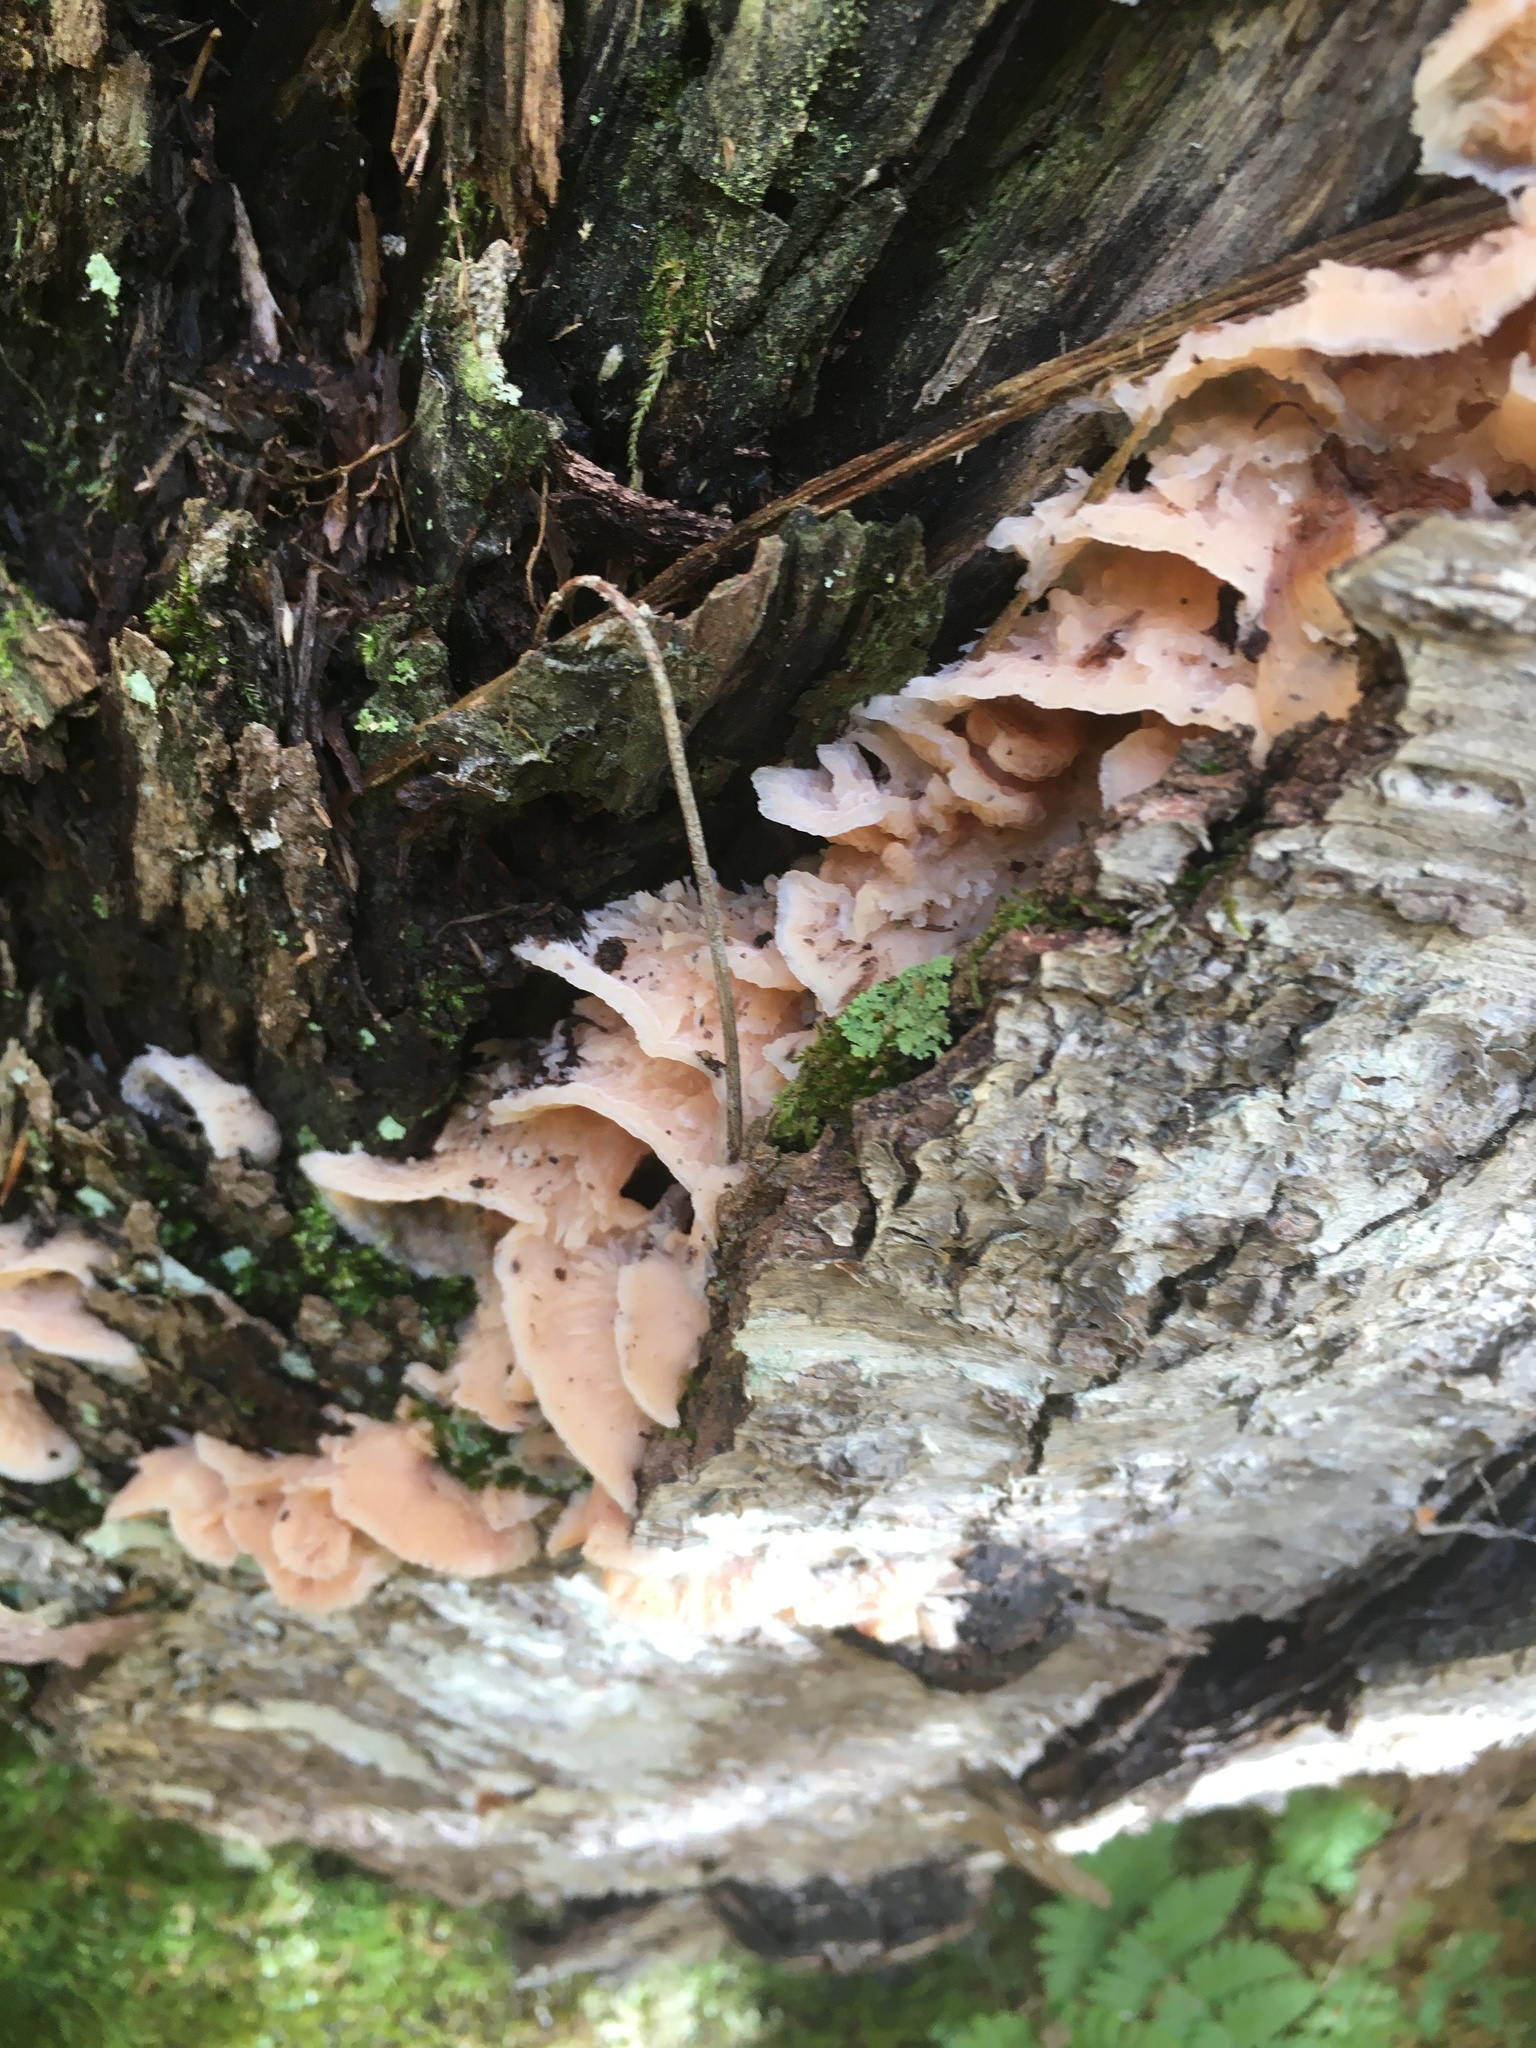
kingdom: Fungi
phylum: Basidiomycota
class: Agaricomycetes
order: Polyporales
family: Meruliaceae
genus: Phlebia
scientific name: Phlebia tremellosa
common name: Jelly rot
